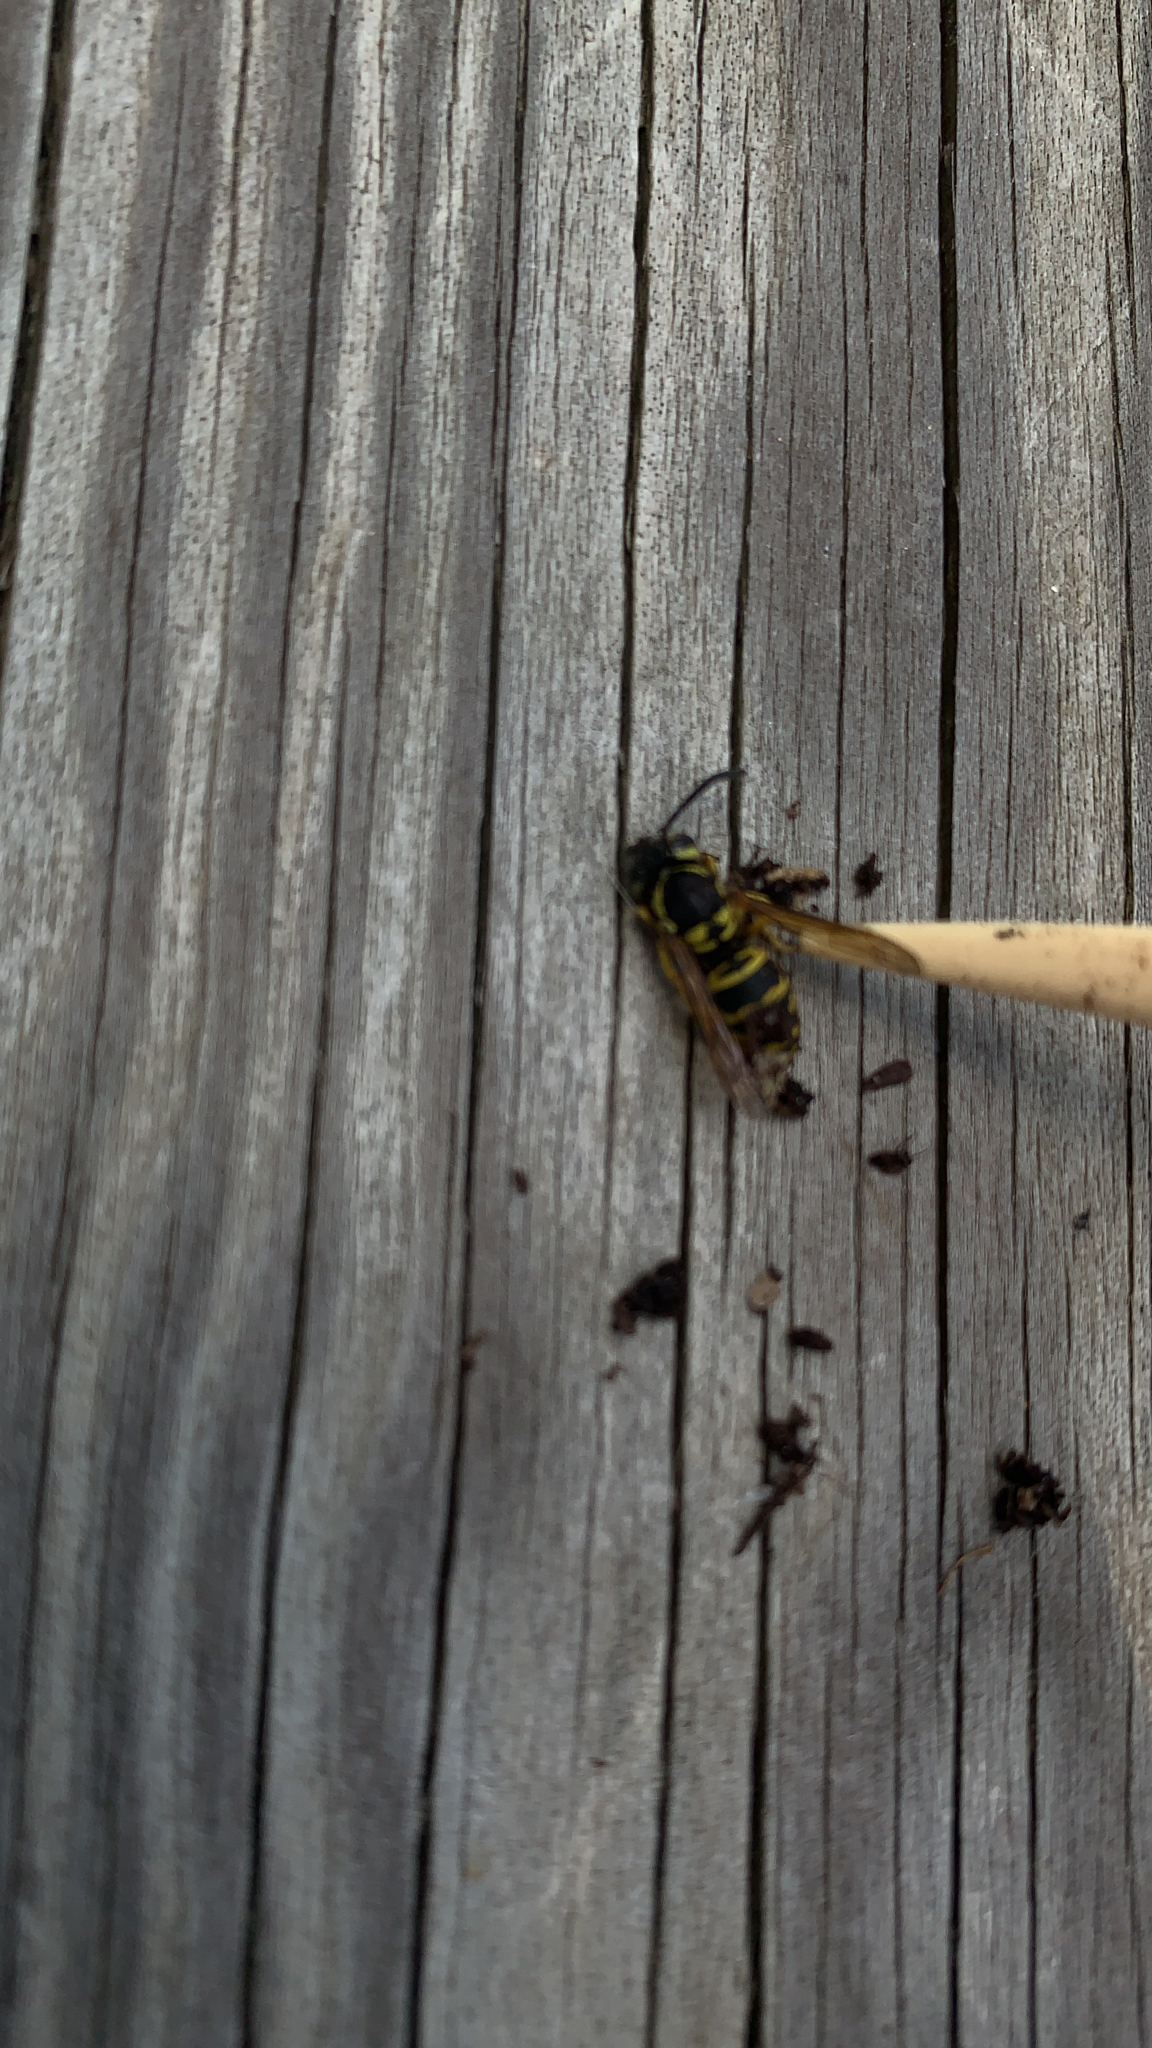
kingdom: Animalia
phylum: Arthropoda
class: Insecta
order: Hymenoptera
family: Vespidae
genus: Vespula
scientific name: Vespula maculifrons
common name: Eastern yellowjacket
